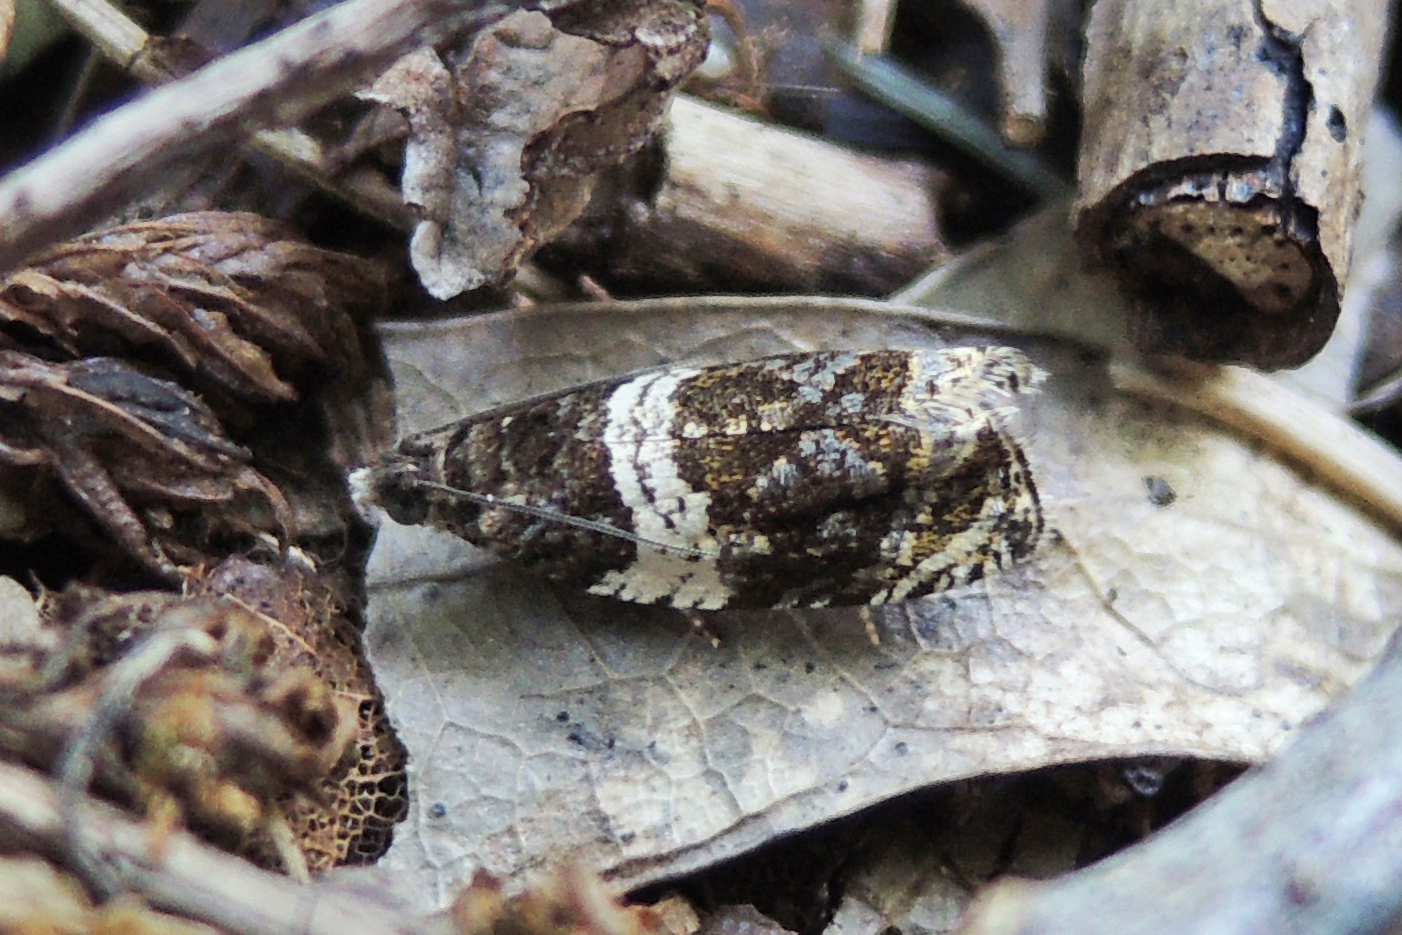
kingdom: Animalia
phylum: Arthropoda
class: Insecta
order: Lepidoptera
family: Tortricidae
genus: Olethreutes
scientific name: Olethreutes fasciatana
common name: Banded olethreutes moth
